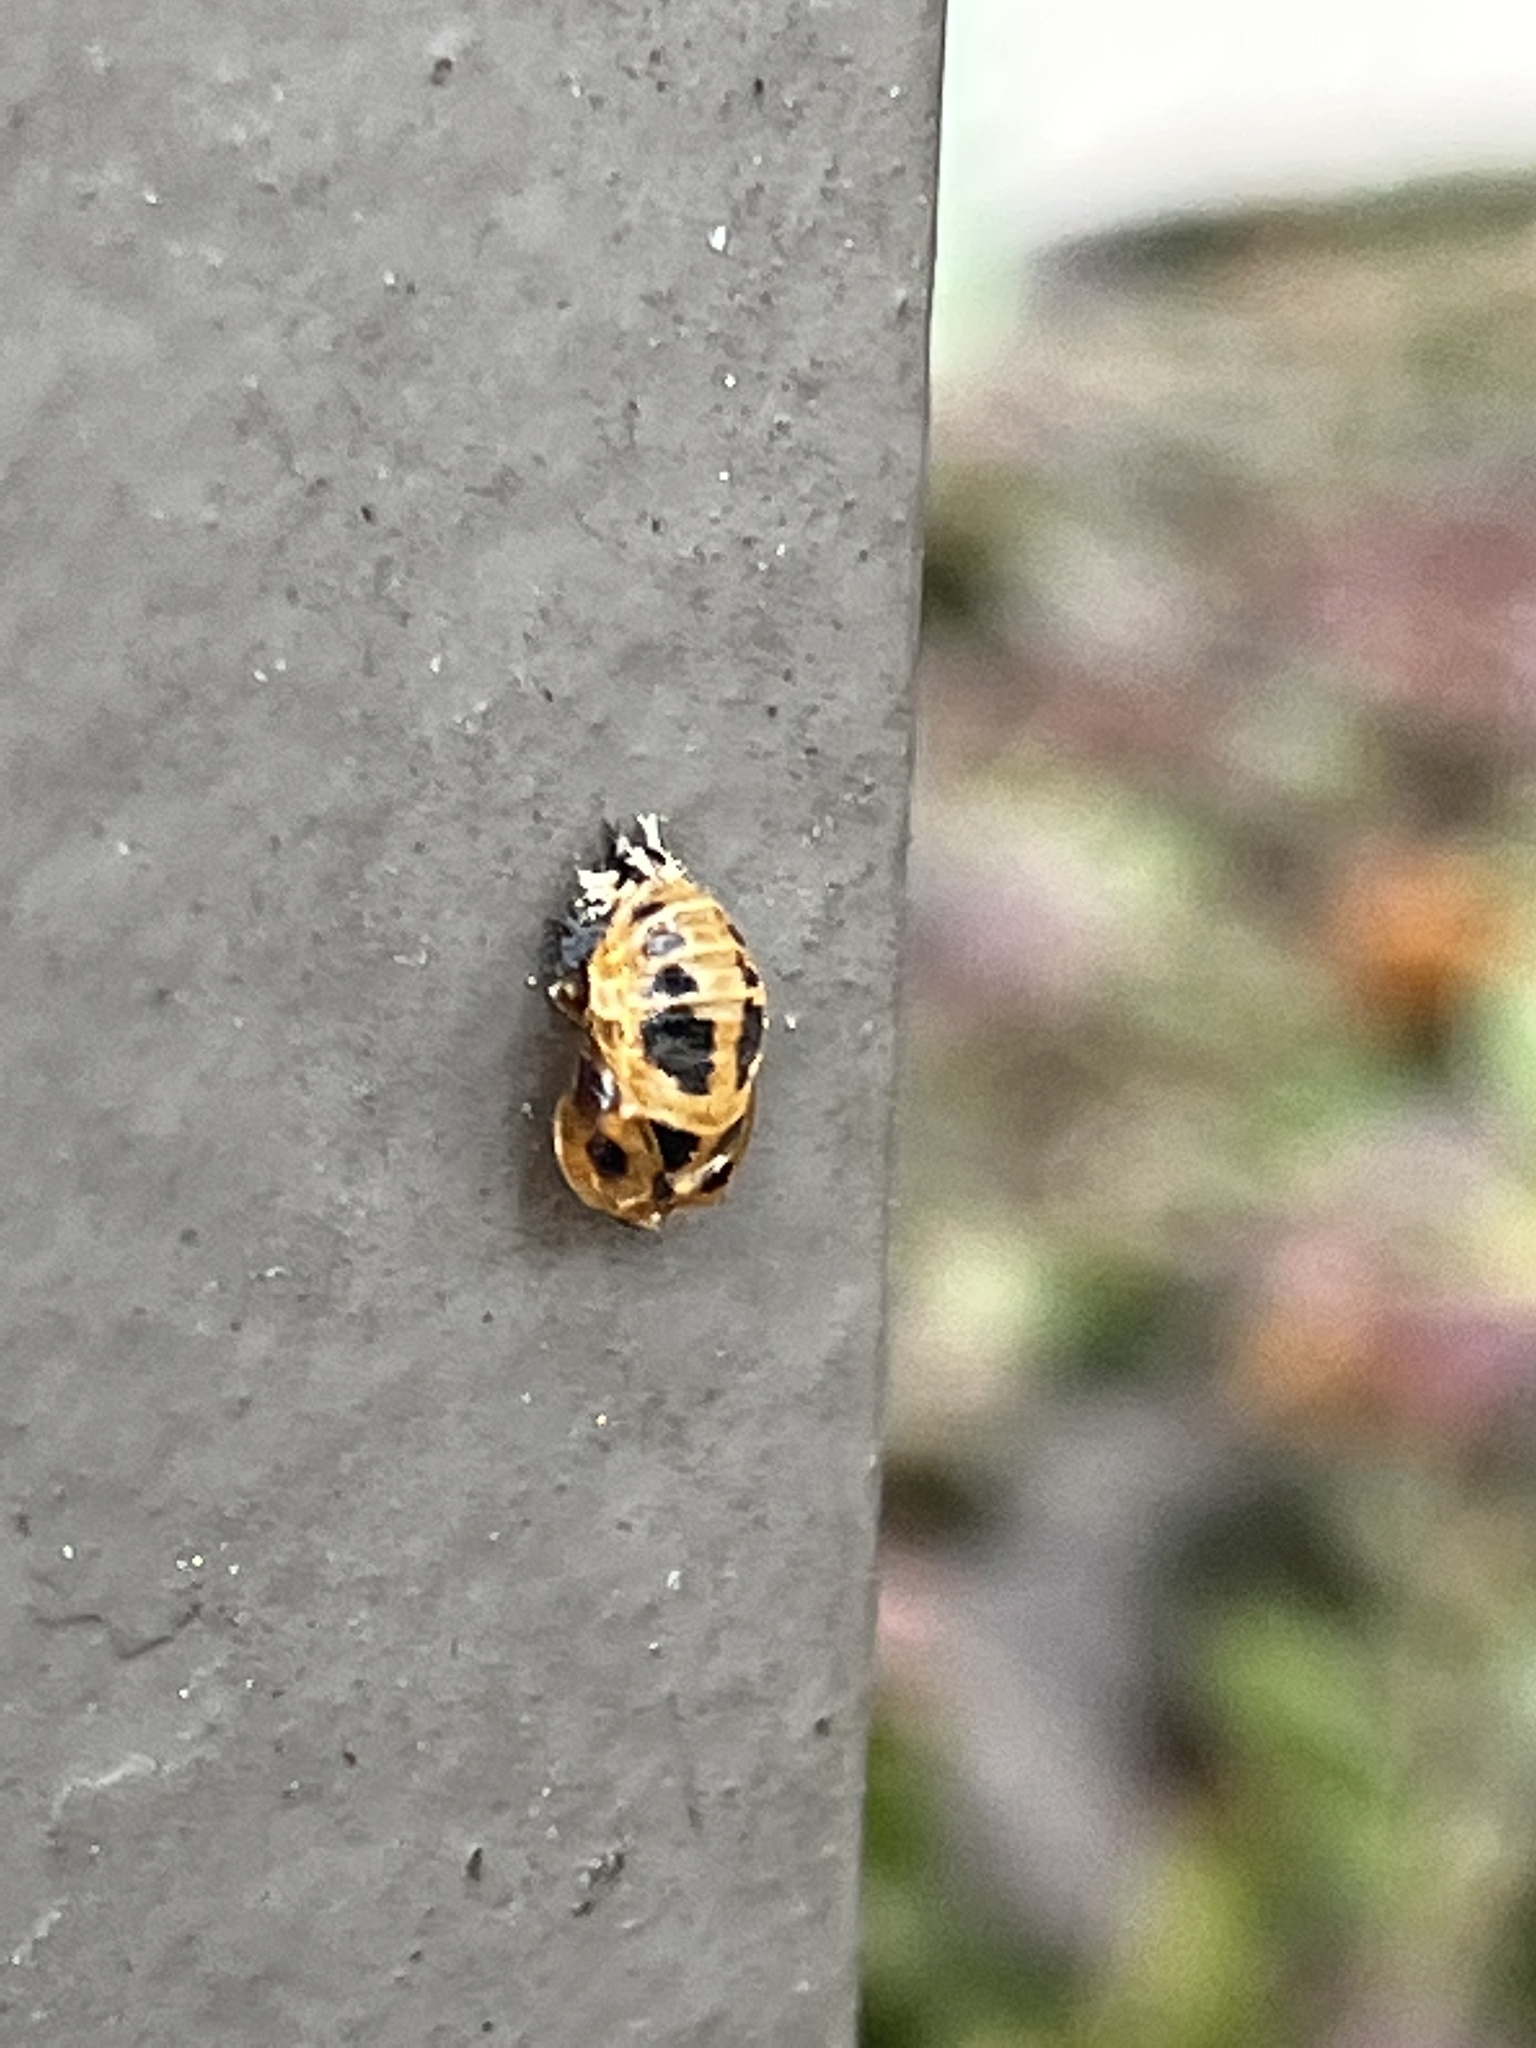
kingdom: Animalia
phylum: Arthropoda
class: Insecta
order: Coleoptera
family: Coccinellidae
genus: Harmonia
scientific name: Harmonia axyridis
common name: Harlequin ladybird
